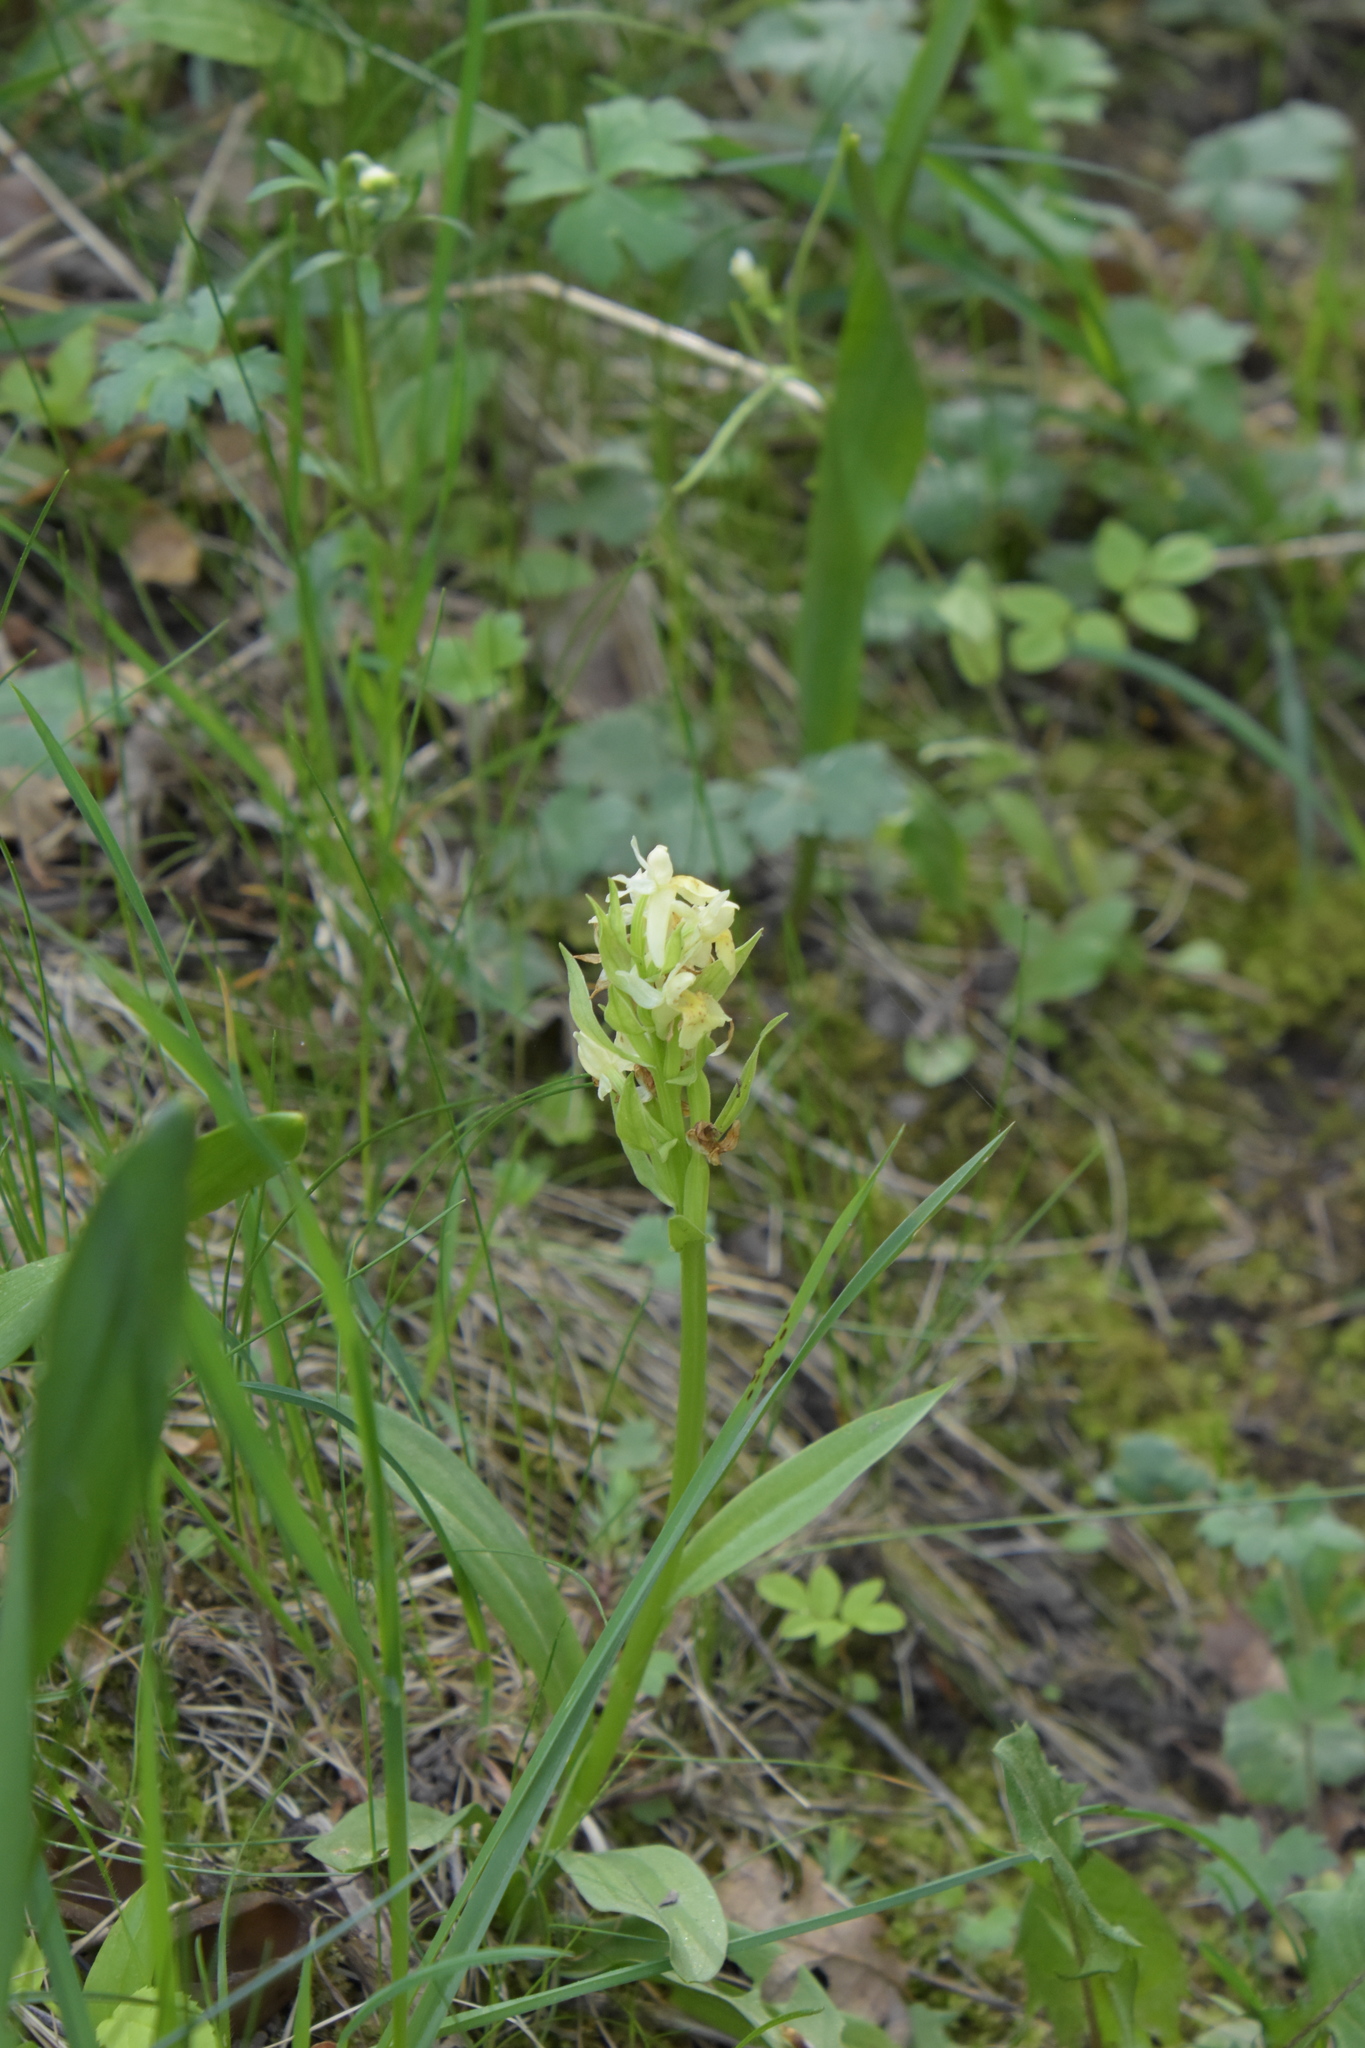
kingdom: Plantae
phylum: Tracheophyta
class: Liliopsida
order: Asparagales
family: Orchidaceae
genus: Dactylorhiza
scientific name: Dactylorhiza sambucina
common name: Elder-flowered orchid
